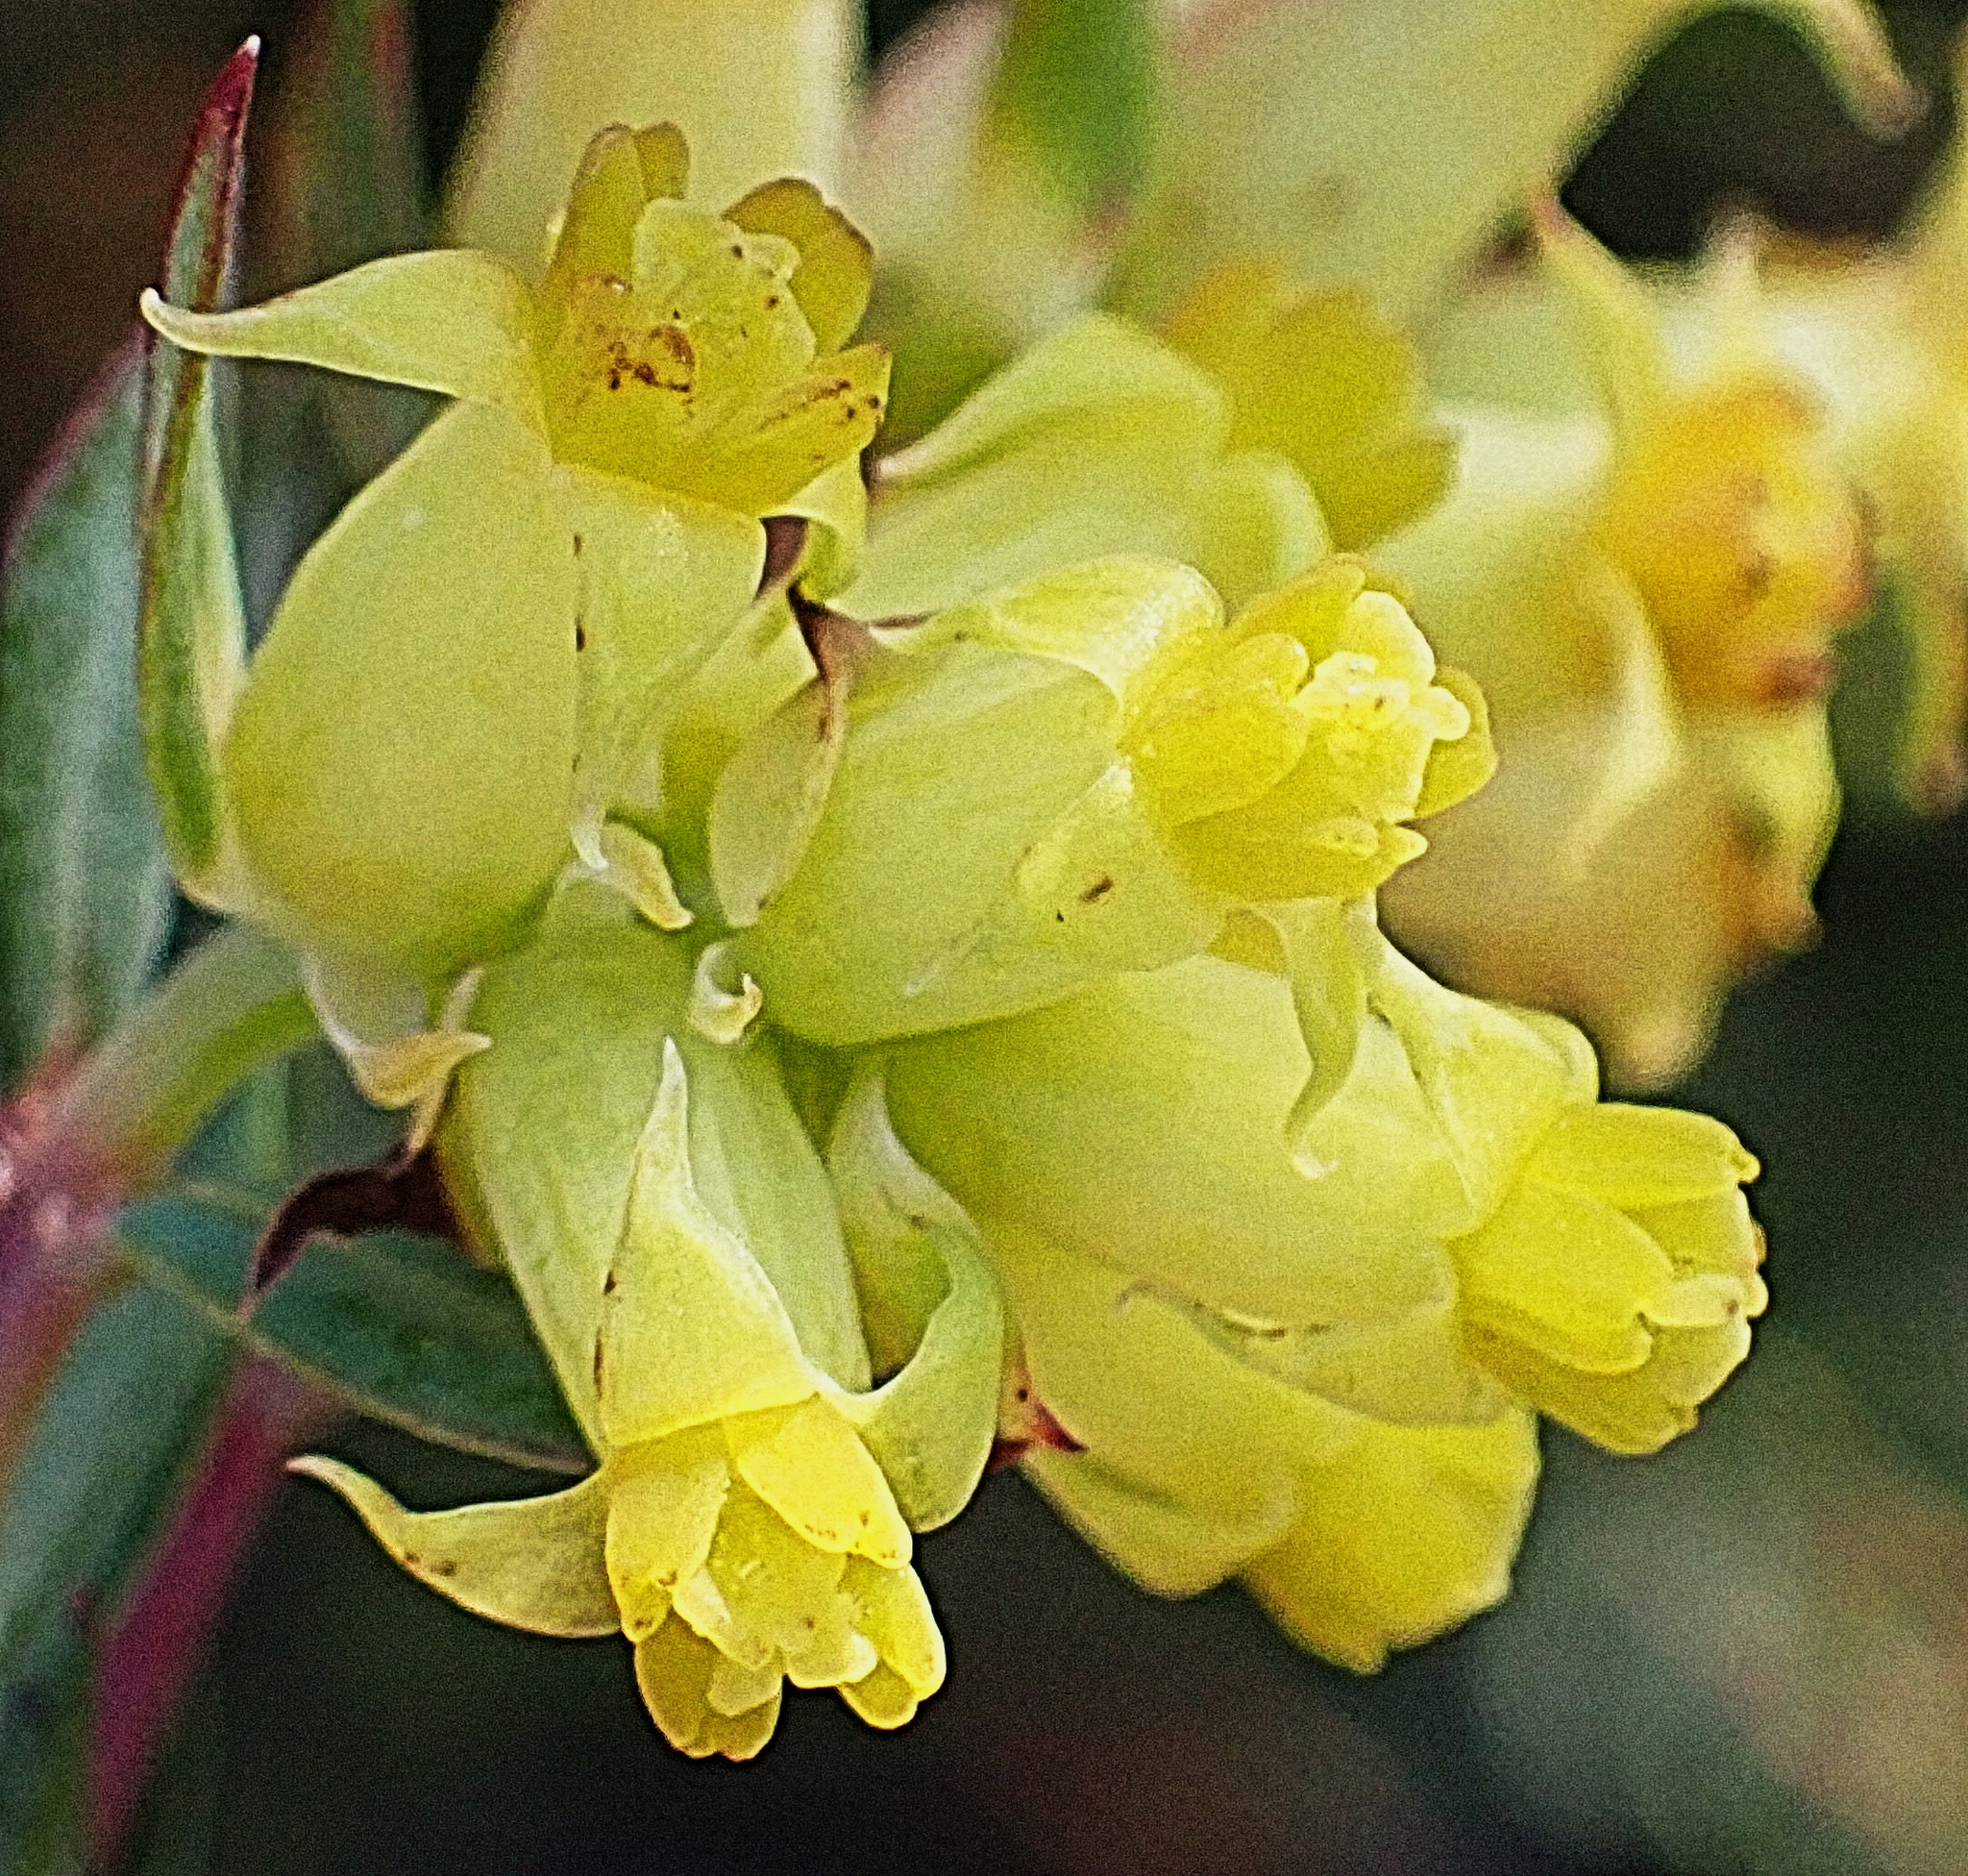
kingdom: Plantae
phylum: Tracheophyta
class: Magnoliopsida
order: Myrtales
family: Penaeaceae
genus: Penaea
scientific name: Penaea acutifolia
